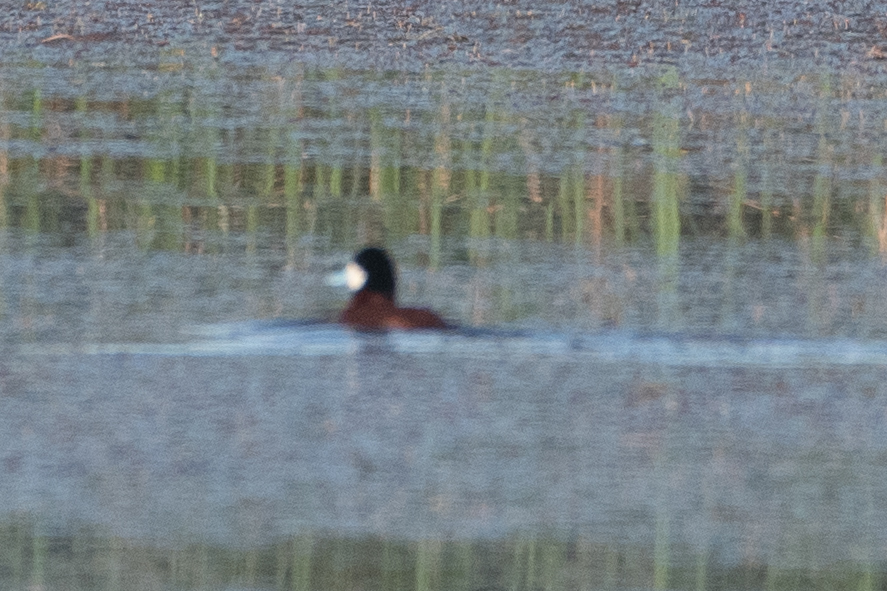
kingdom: Animalia
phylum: Chordata
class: Aves
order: Anseriformes
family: Anatidae
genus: Oxyura
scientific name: Oxyura jamaicensis
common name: Ruddy duck
